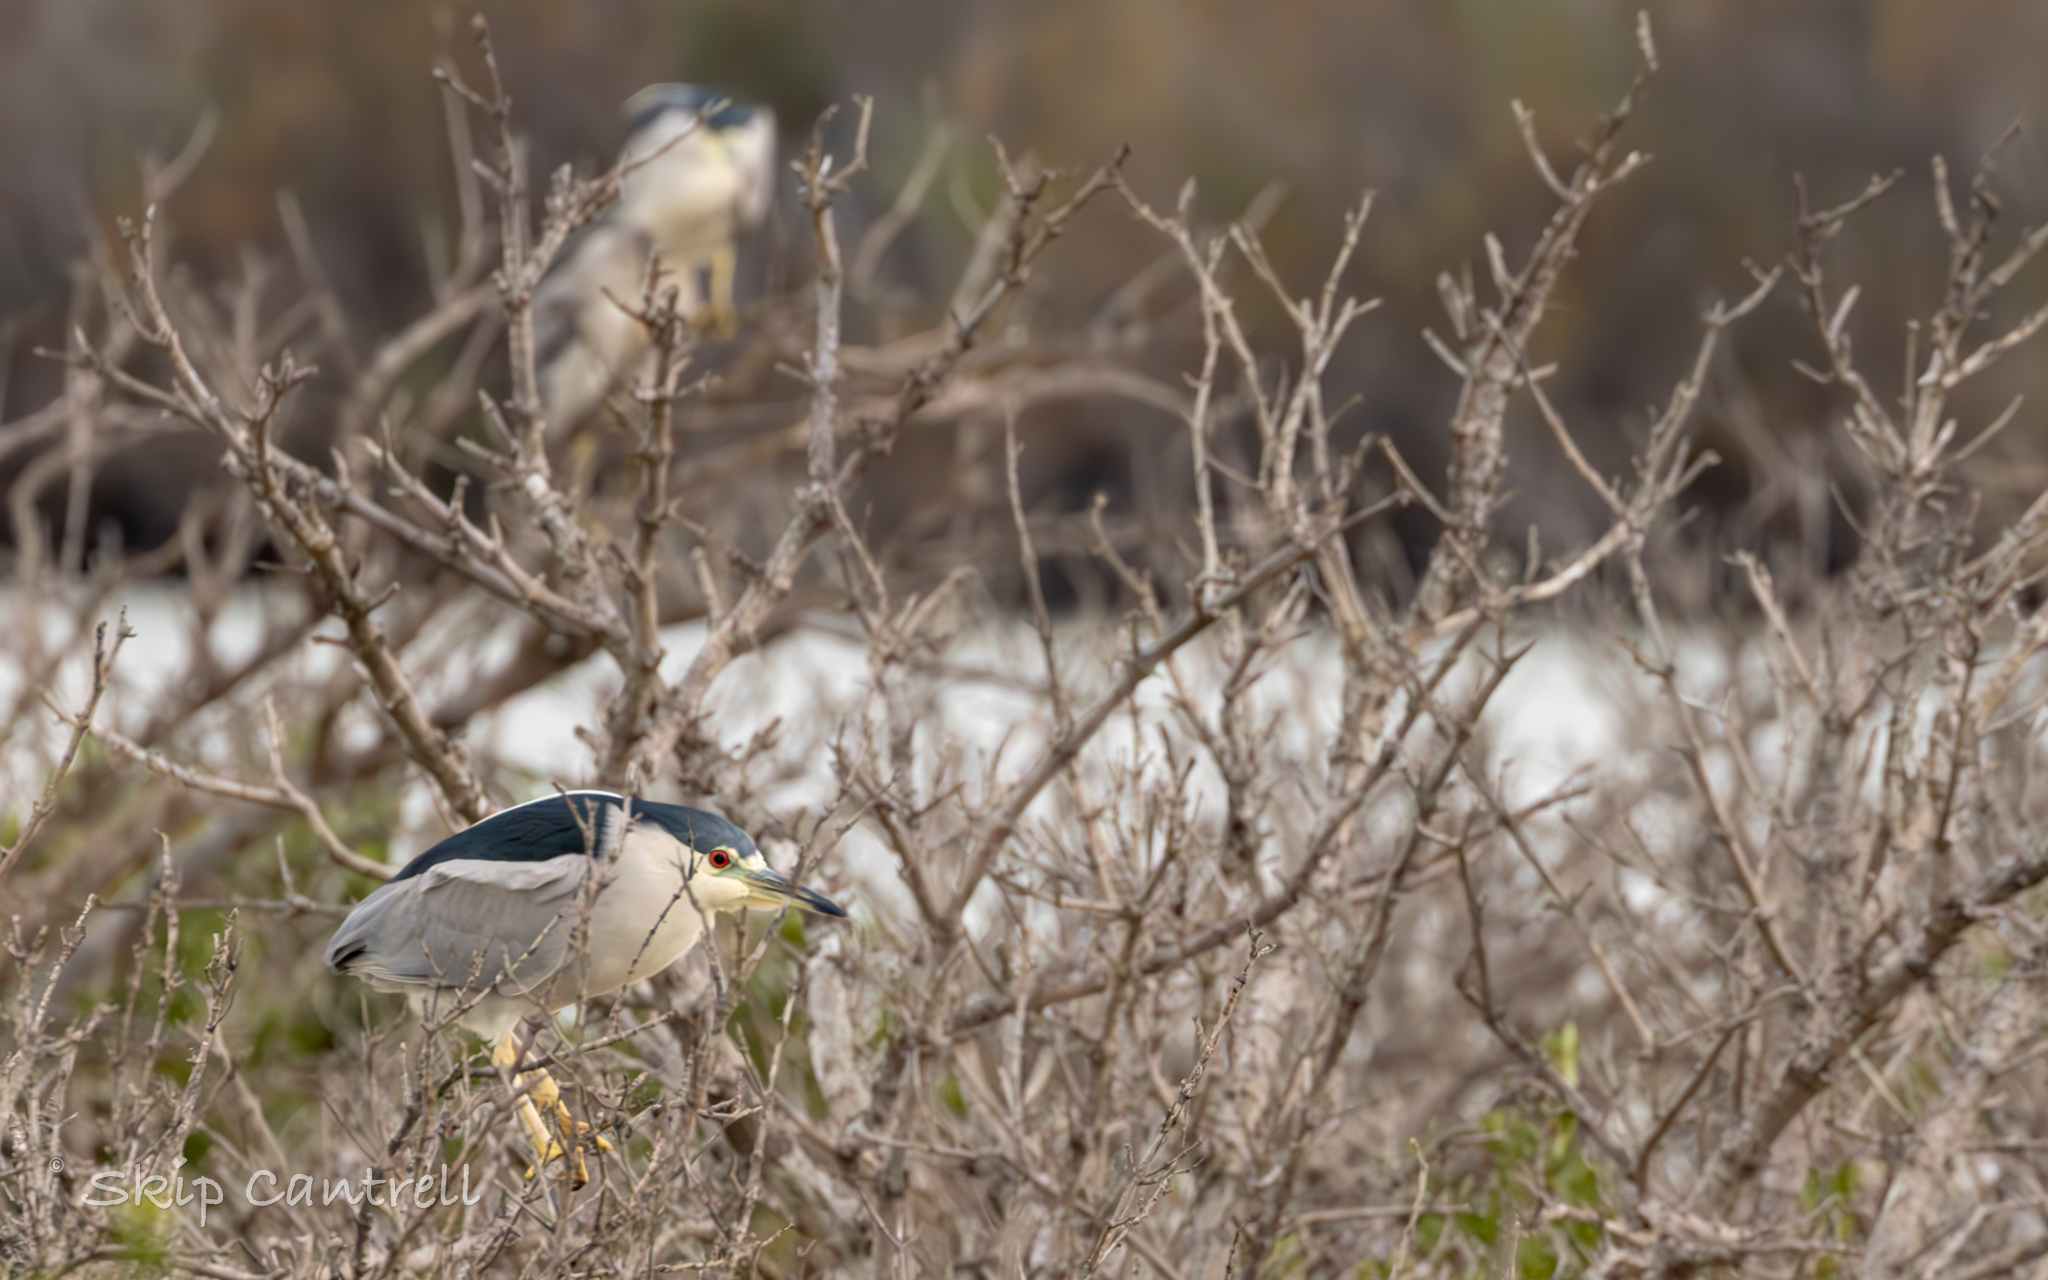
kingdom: Animalia
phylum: Chordata
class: Aves
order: Pelecaniformes
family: Ardeidae
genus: Nycticorax
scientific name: Nycticorax nycticorax
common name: Black-crowned night heron
